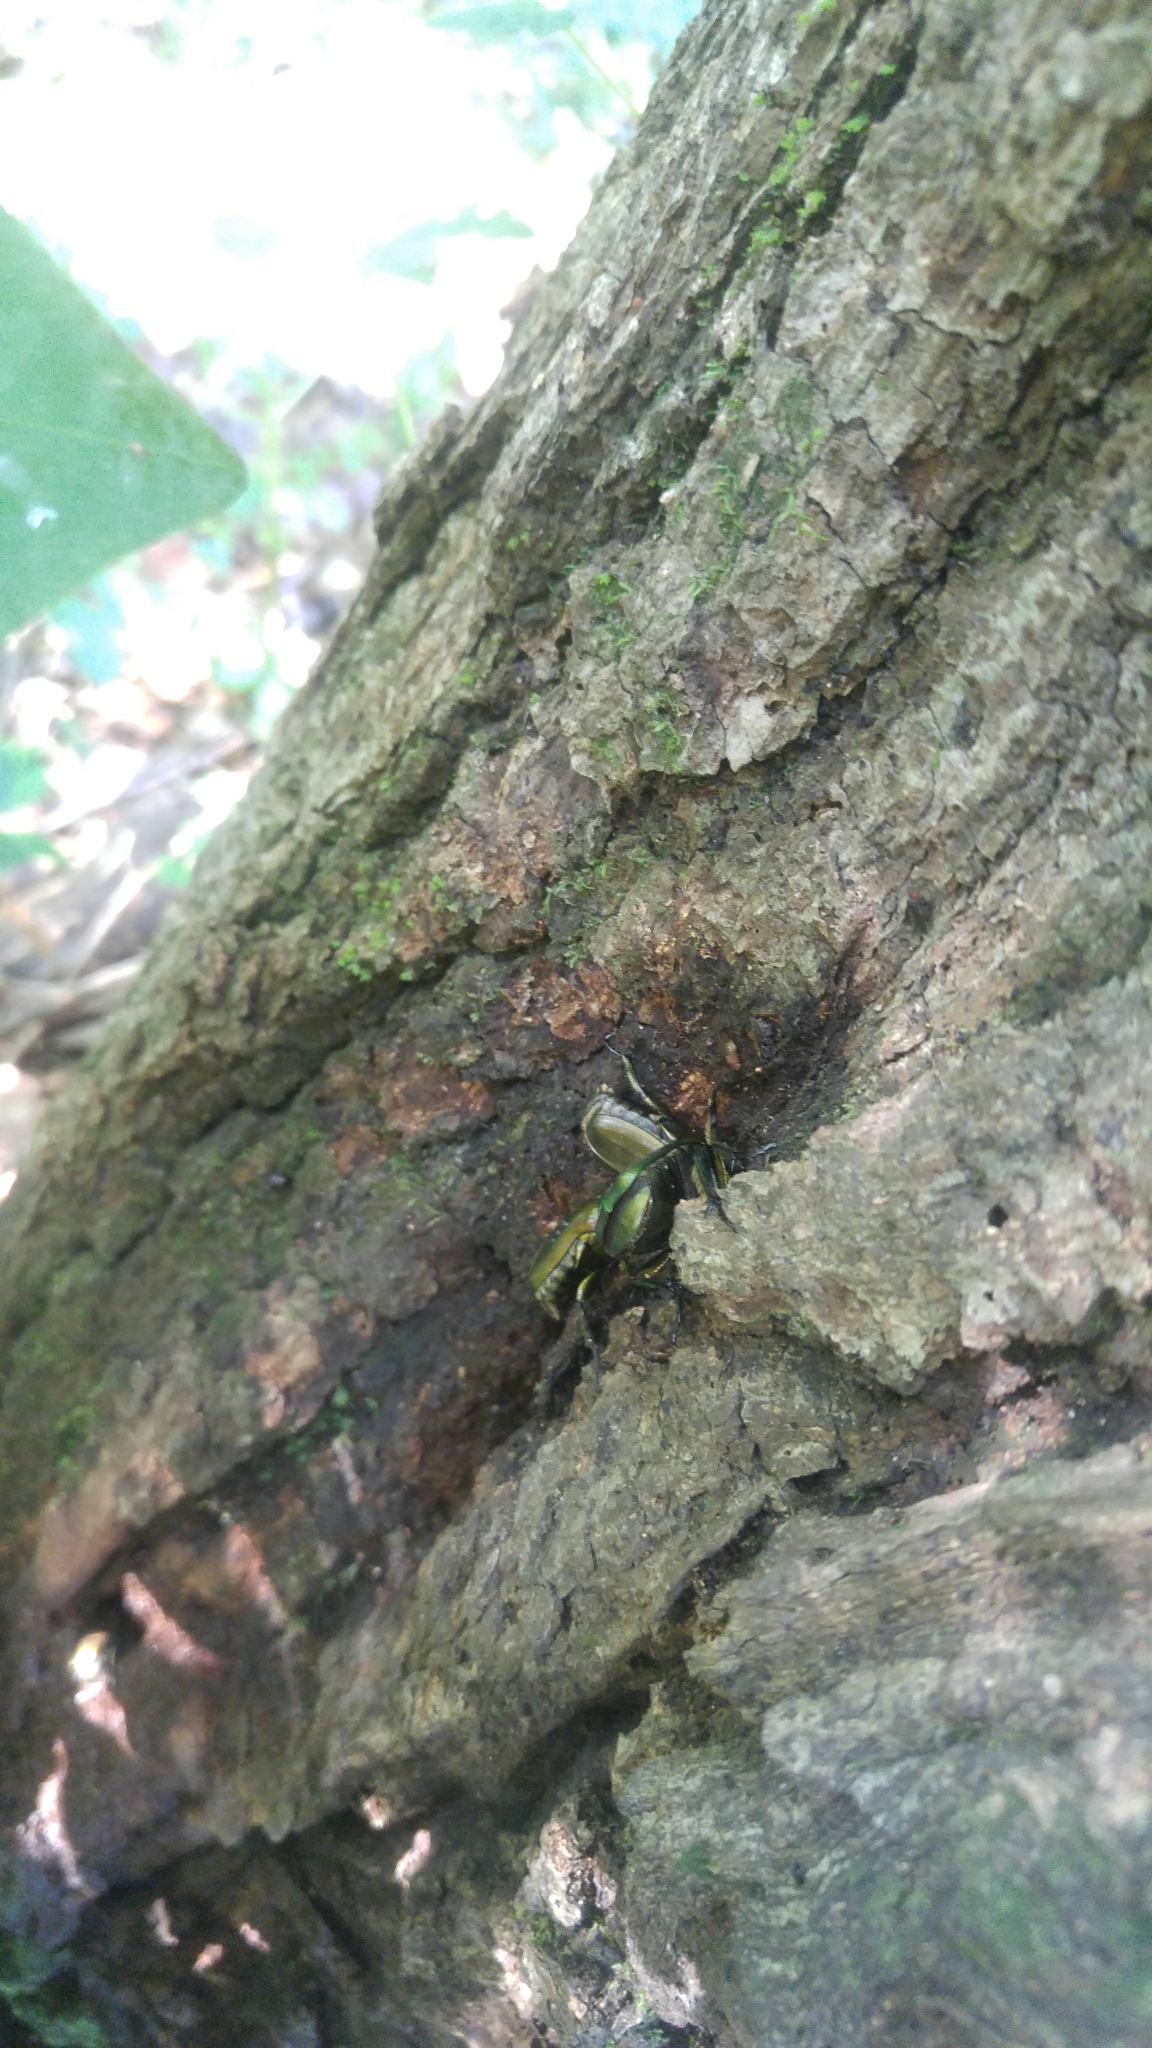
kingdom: Animalia
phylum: Arthropoda
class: Insecta
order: Coleoptera
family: Scarabaeidae
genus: Pseudotorynorrhina
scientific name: Pseudotorynorrhina japonica
